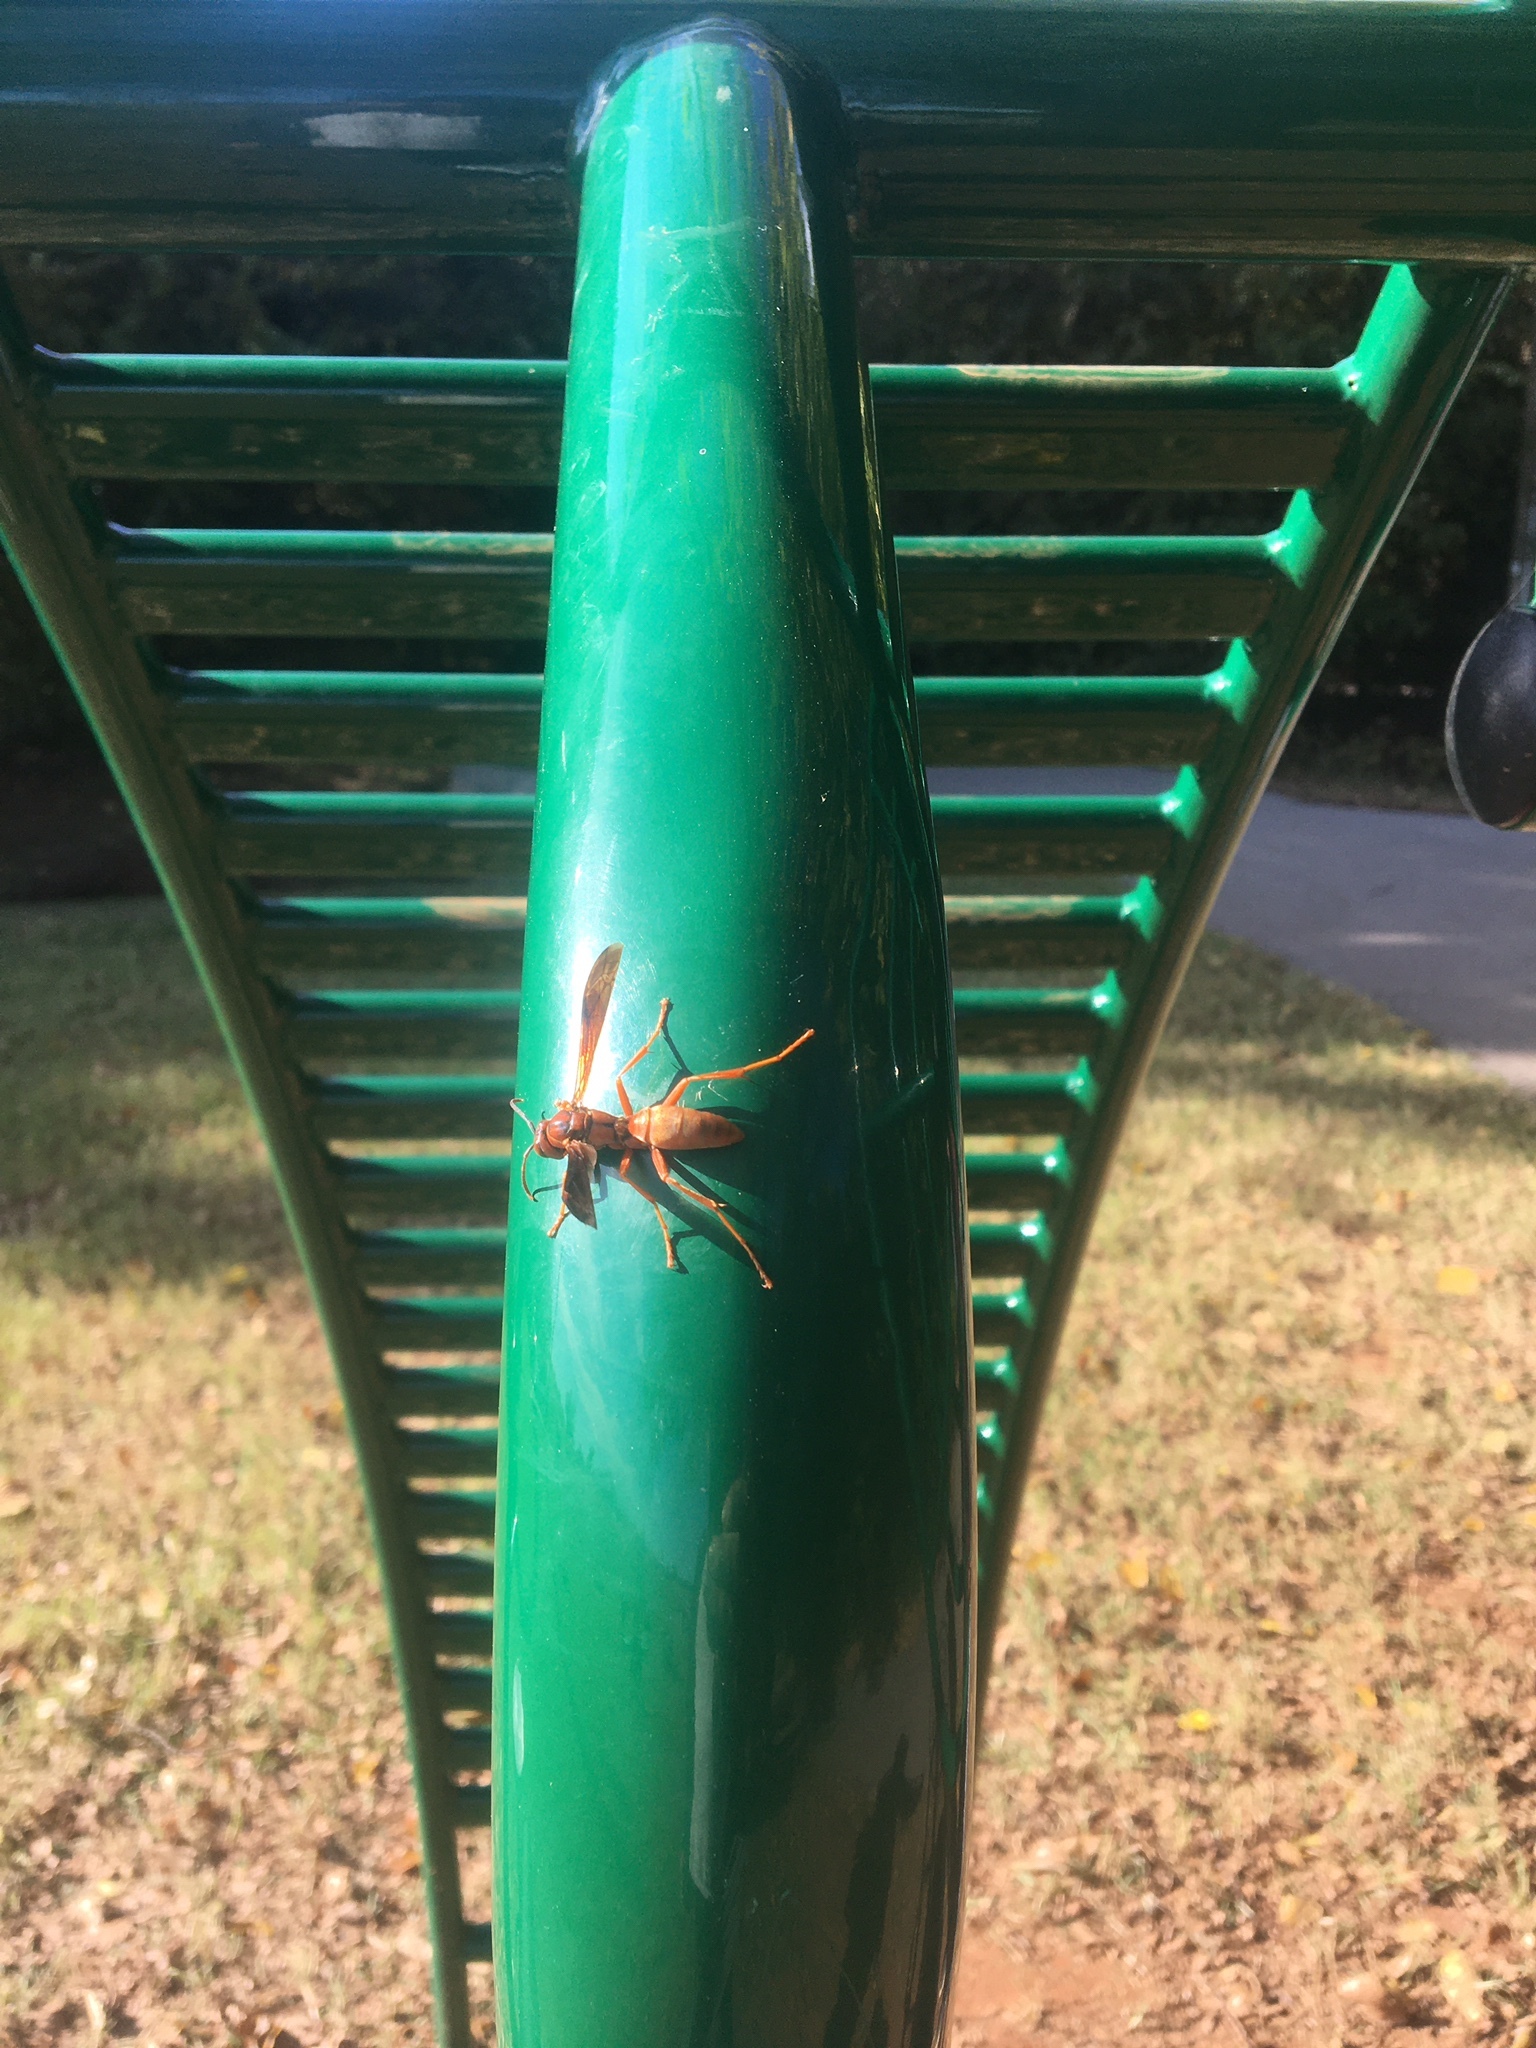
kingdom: Animalia
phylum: Arthropoda
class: Insecta
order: Hymenoptera
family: Eumenidae
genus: Polistes
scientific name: Polistes carolina
